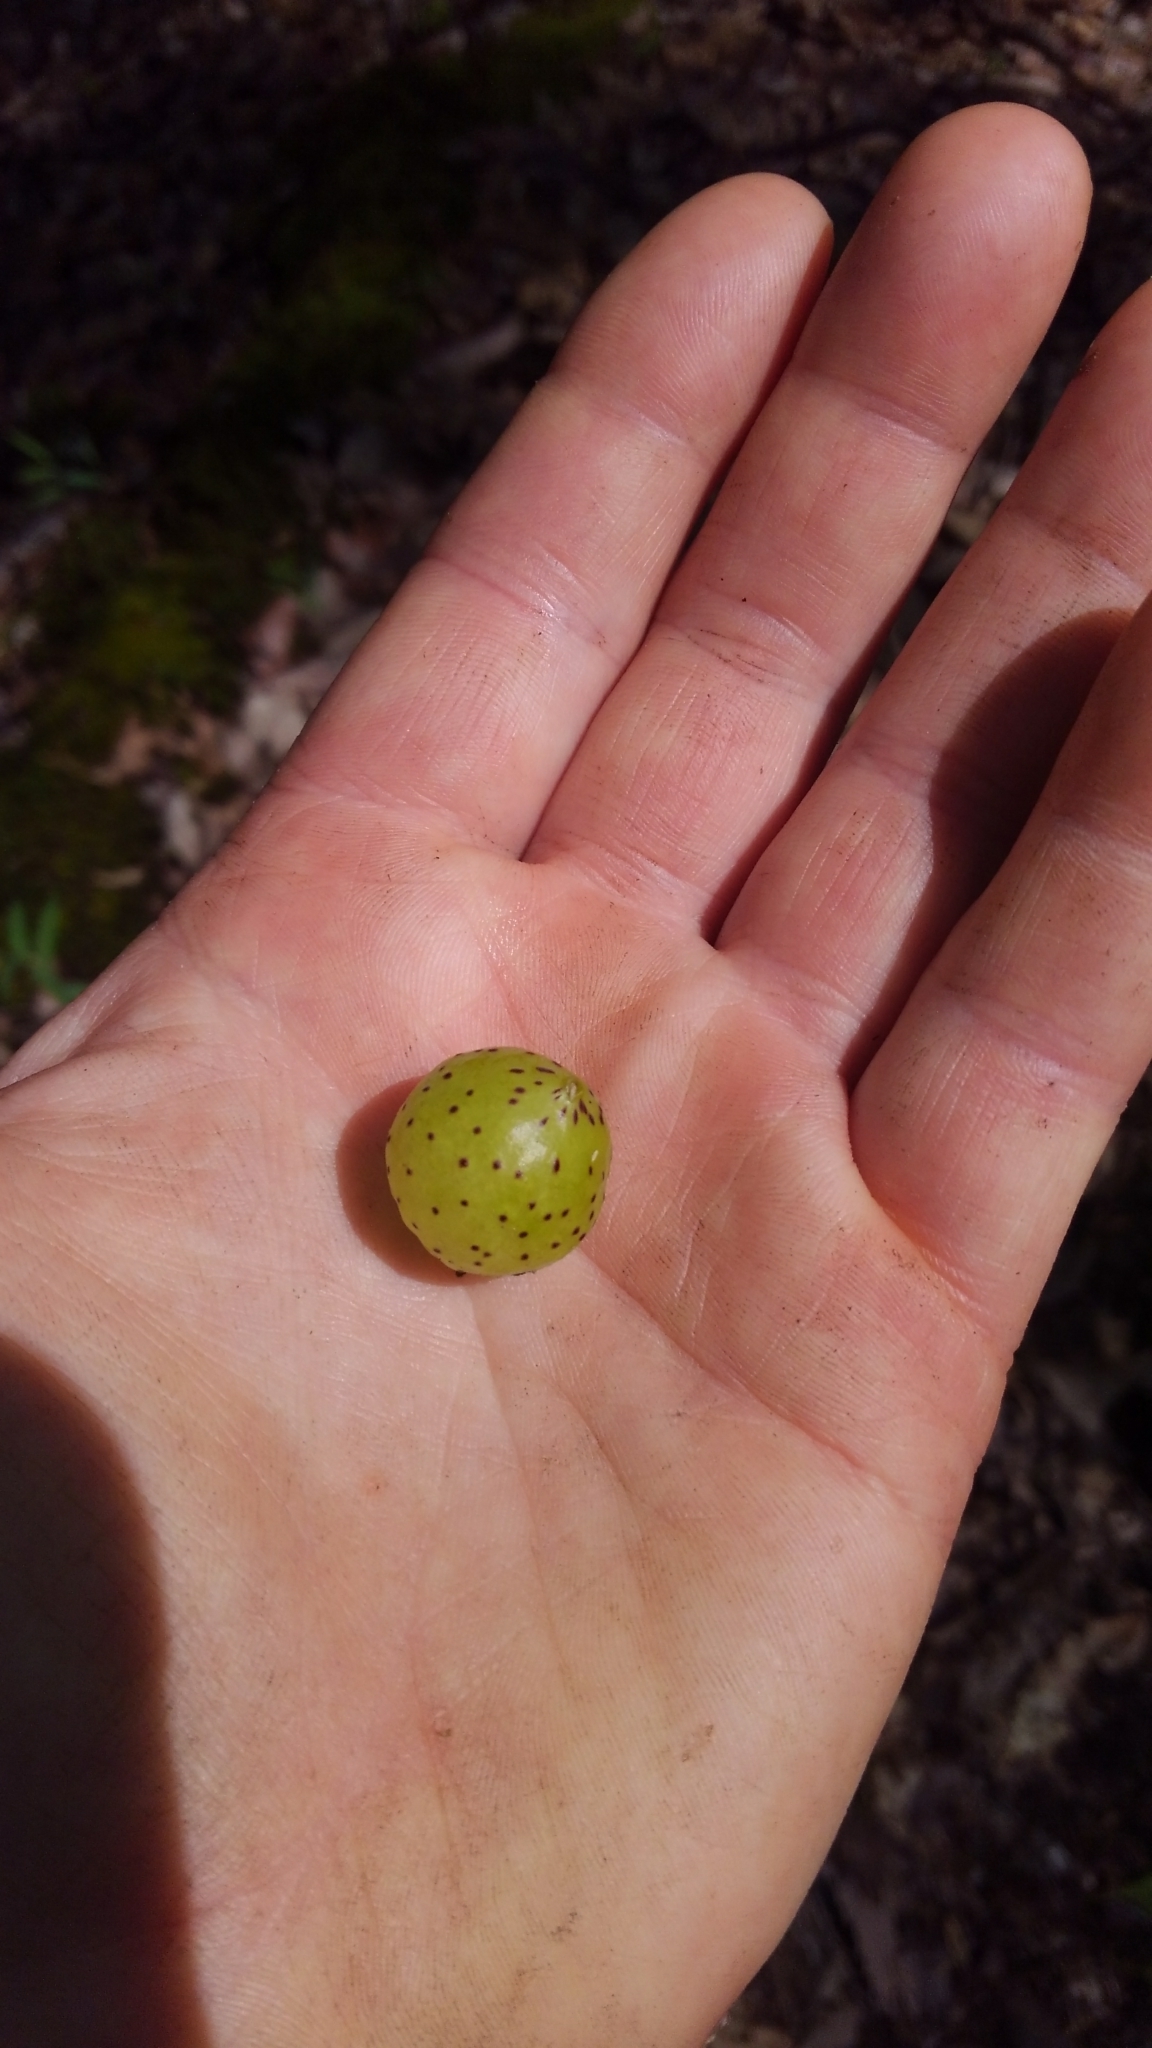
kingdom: Animalia
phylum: Arthropoda
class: Insecta
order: Hymenoptera
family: Cynipidae
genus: Amphibolips
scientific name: Amphibolips
